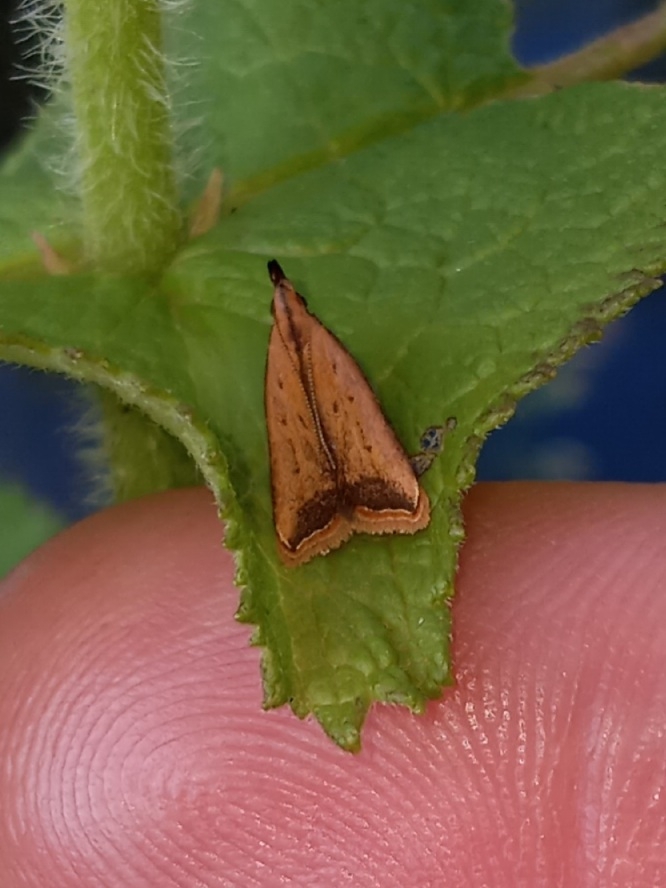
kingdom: Animalia
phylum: Arthropoda
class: Insecta
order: Lepidoptera
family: Gelechiidae
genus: Dichomeris
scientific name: Dichomeris heriguronis
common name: Black-edged dichomeris moth
